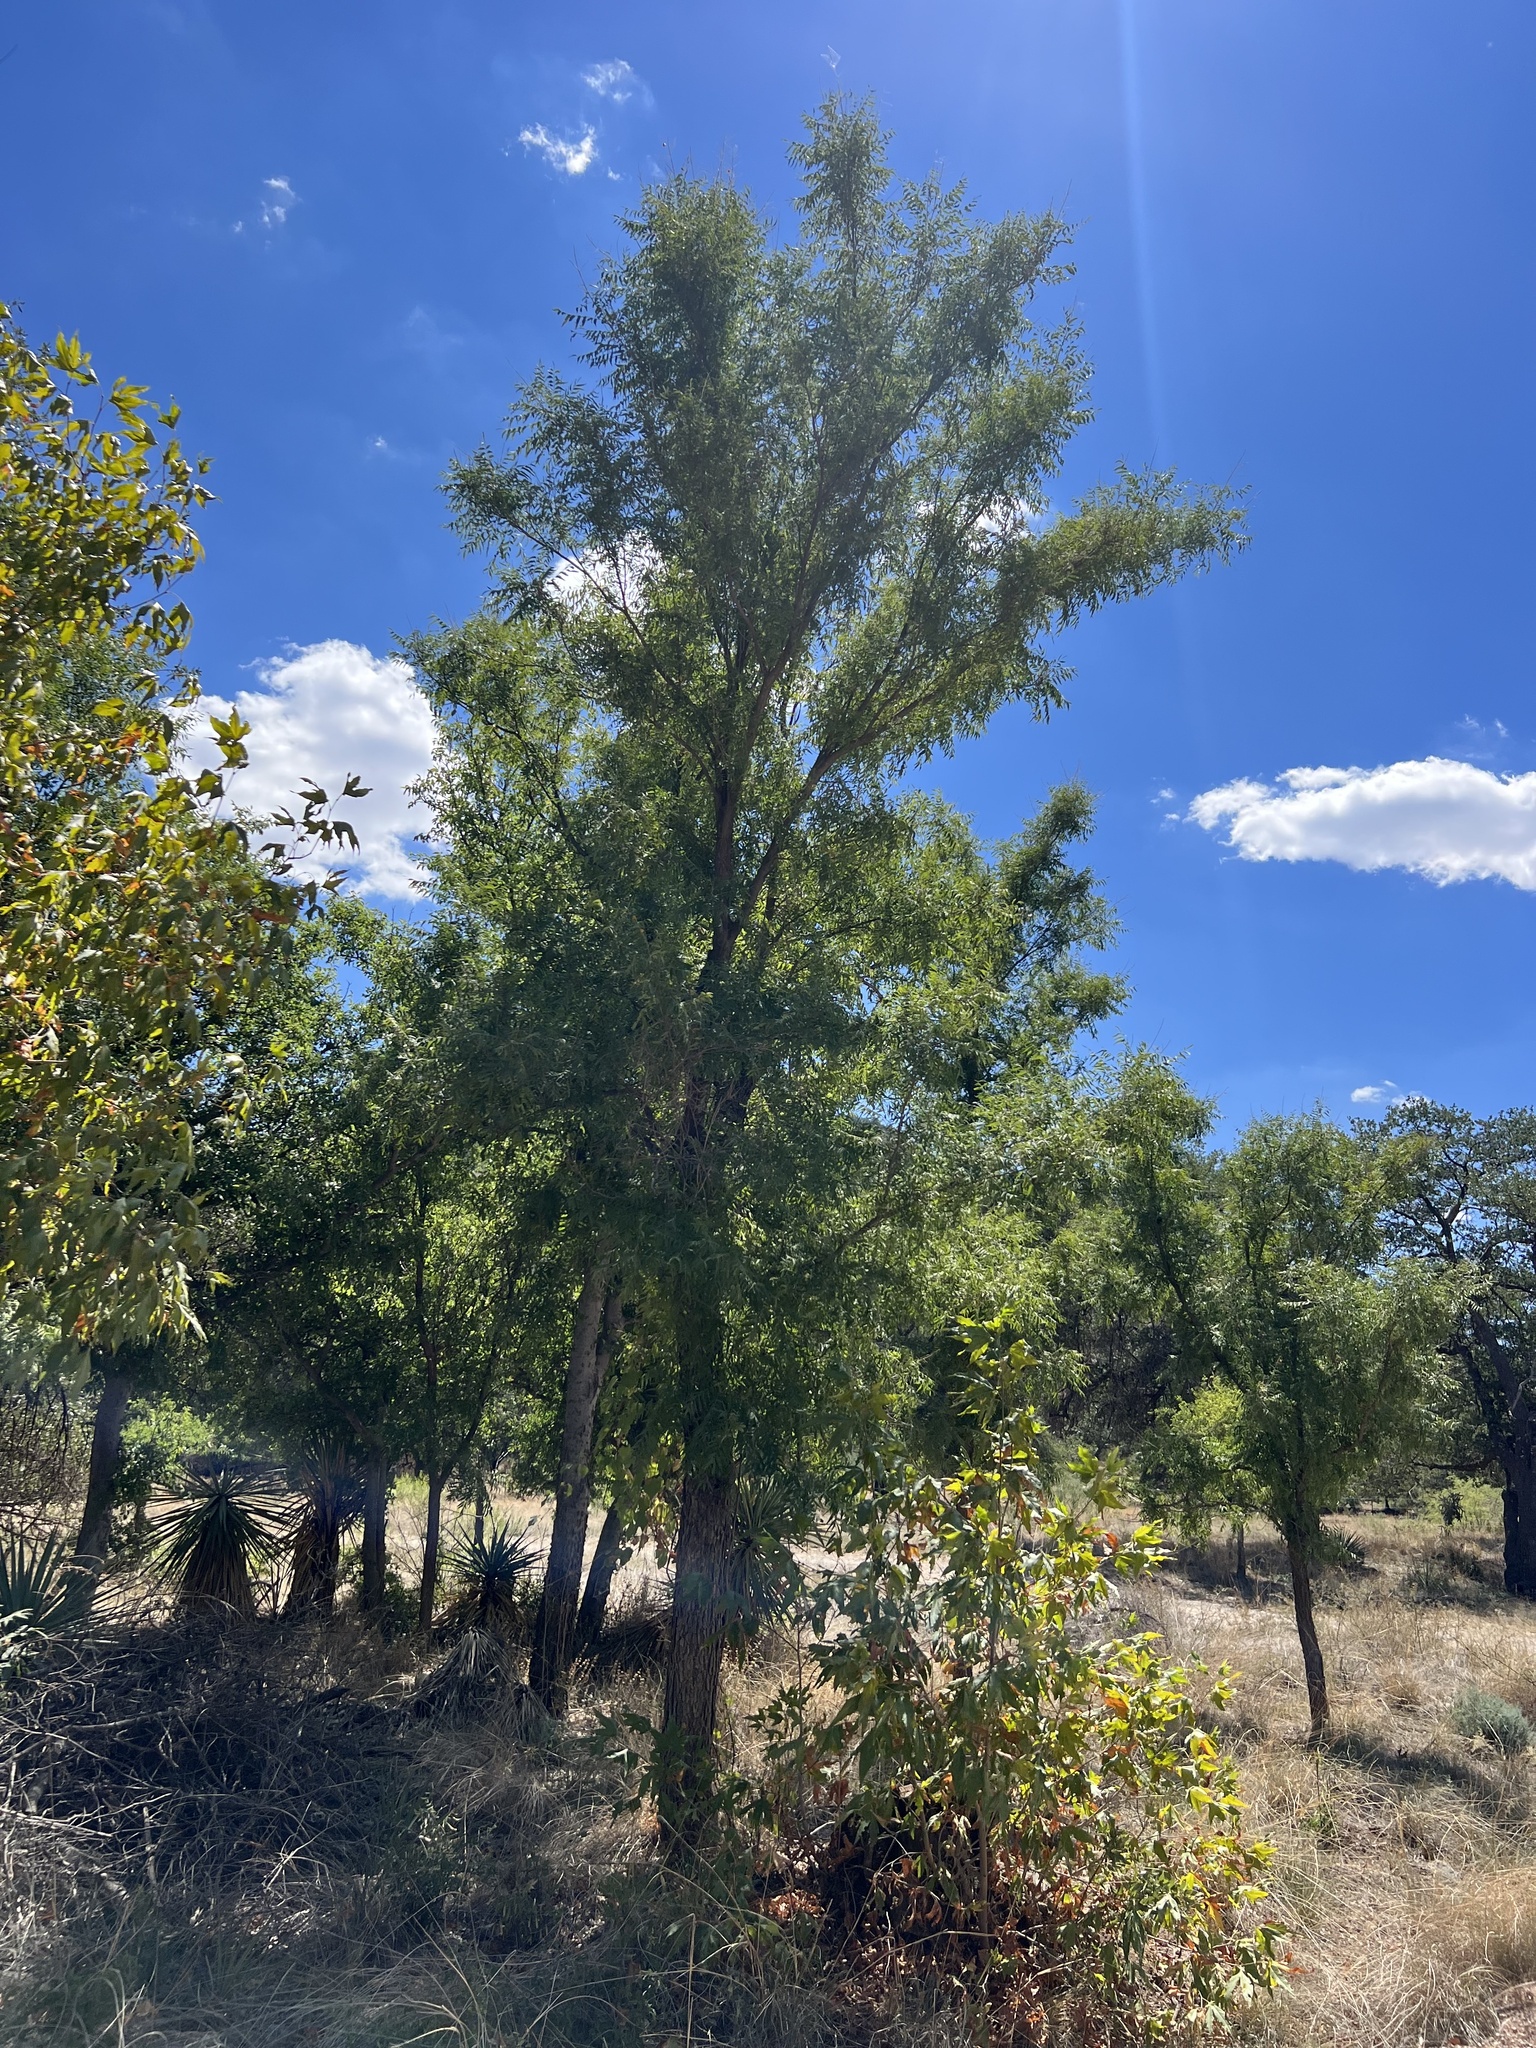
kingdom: Plantae
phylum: Tracheophyta
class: Magnoliopsida
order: Fagales
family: Juglandaceae
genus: Juglans
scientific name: Juglans major
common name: Arizona walnut
